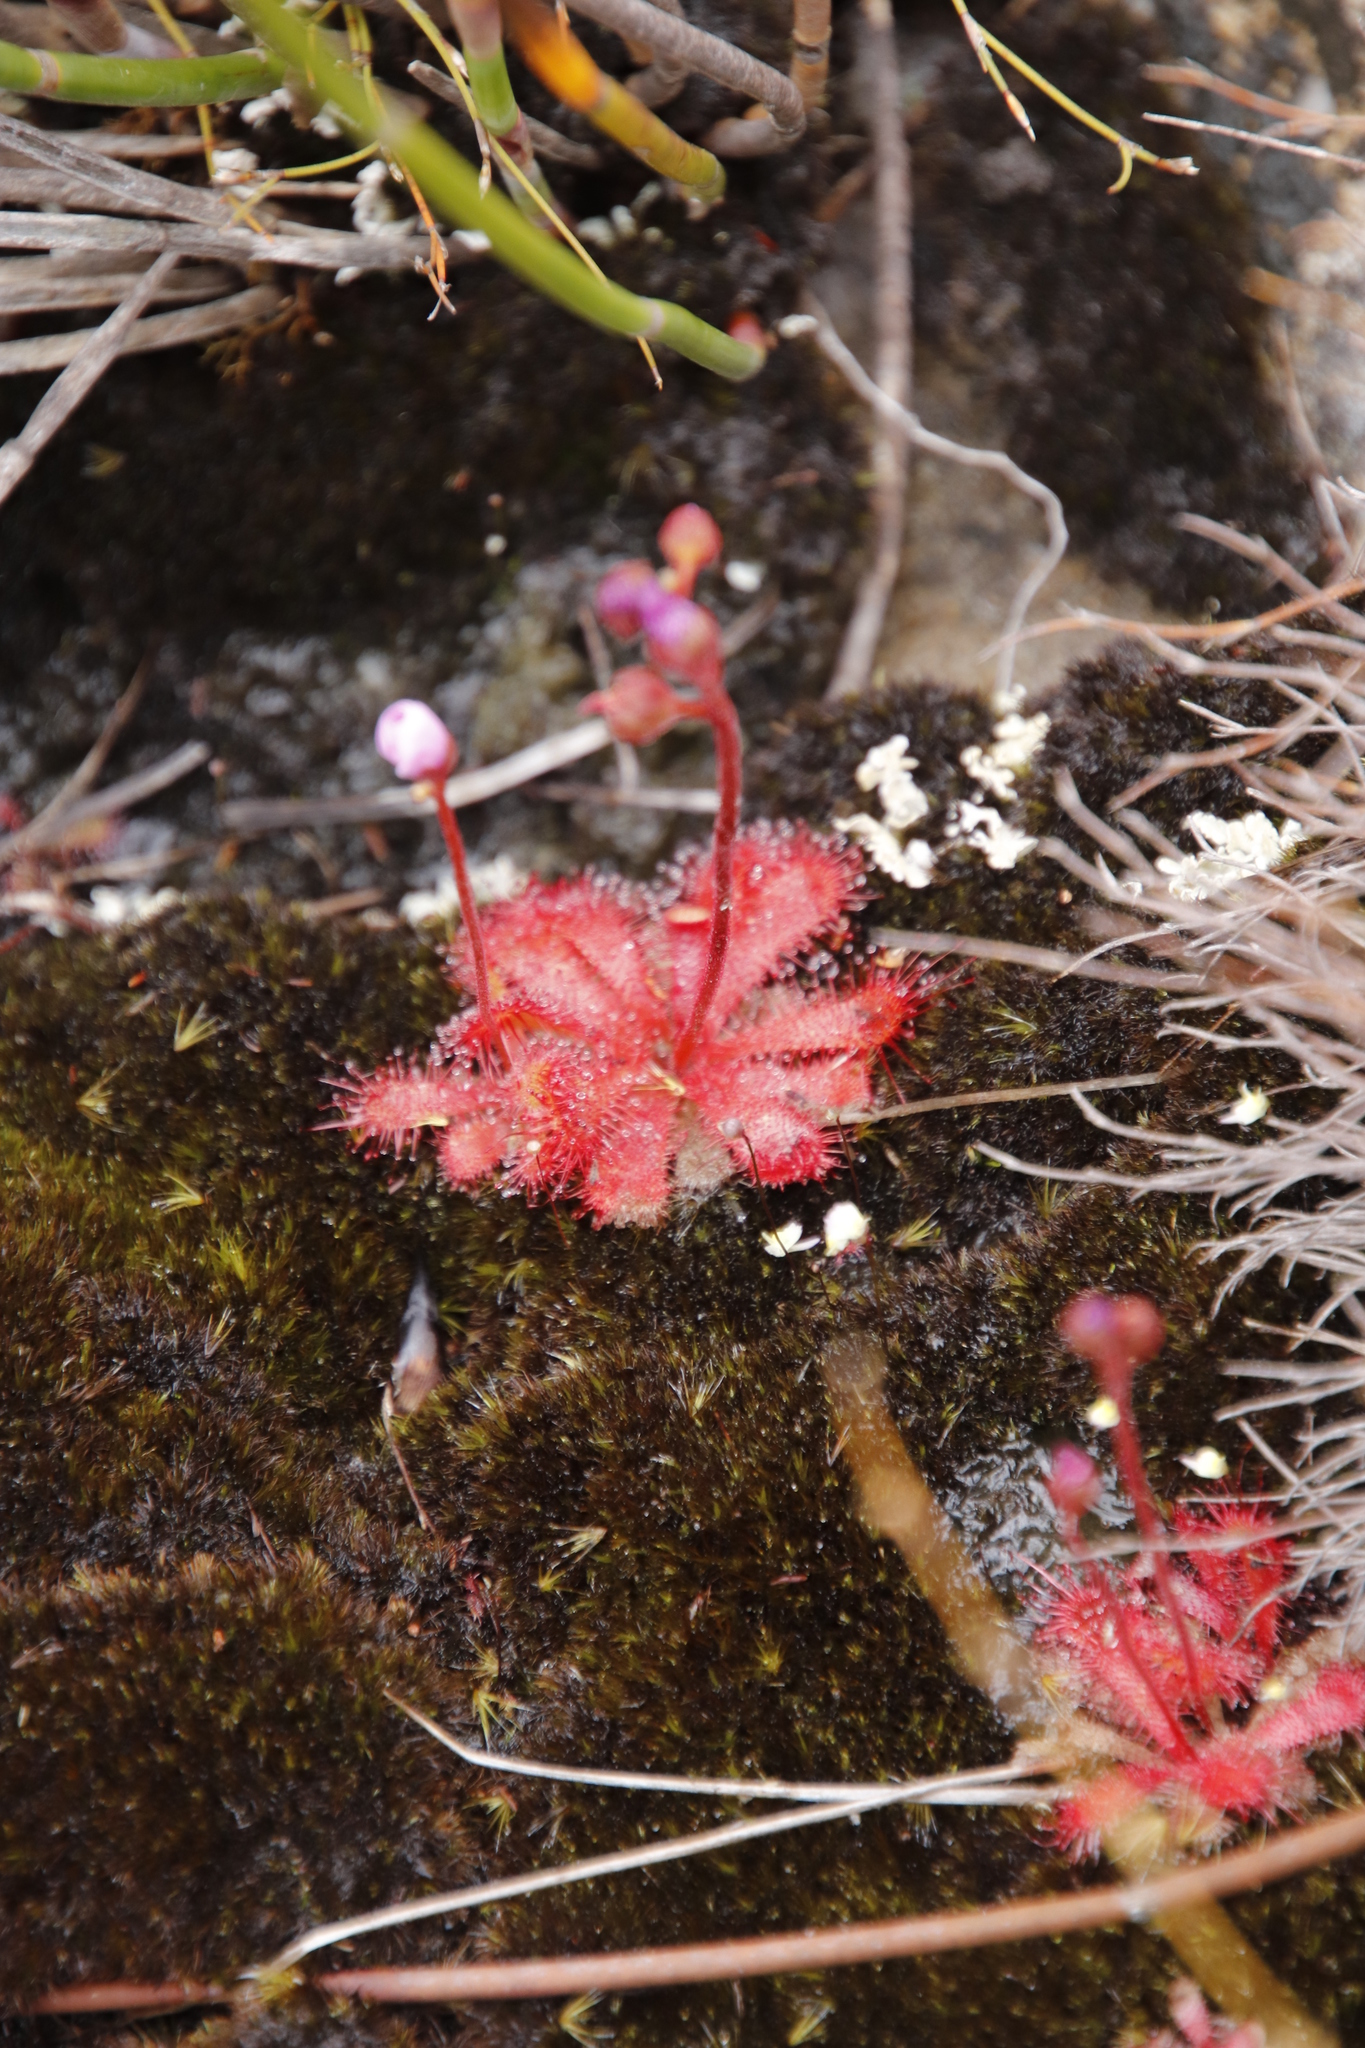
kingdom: Plantae
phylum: Tracheophyta
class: Magnoliopsida
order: Caryophyllales
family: Droseraceae
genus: Drosera
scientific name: Drosera trinervia
